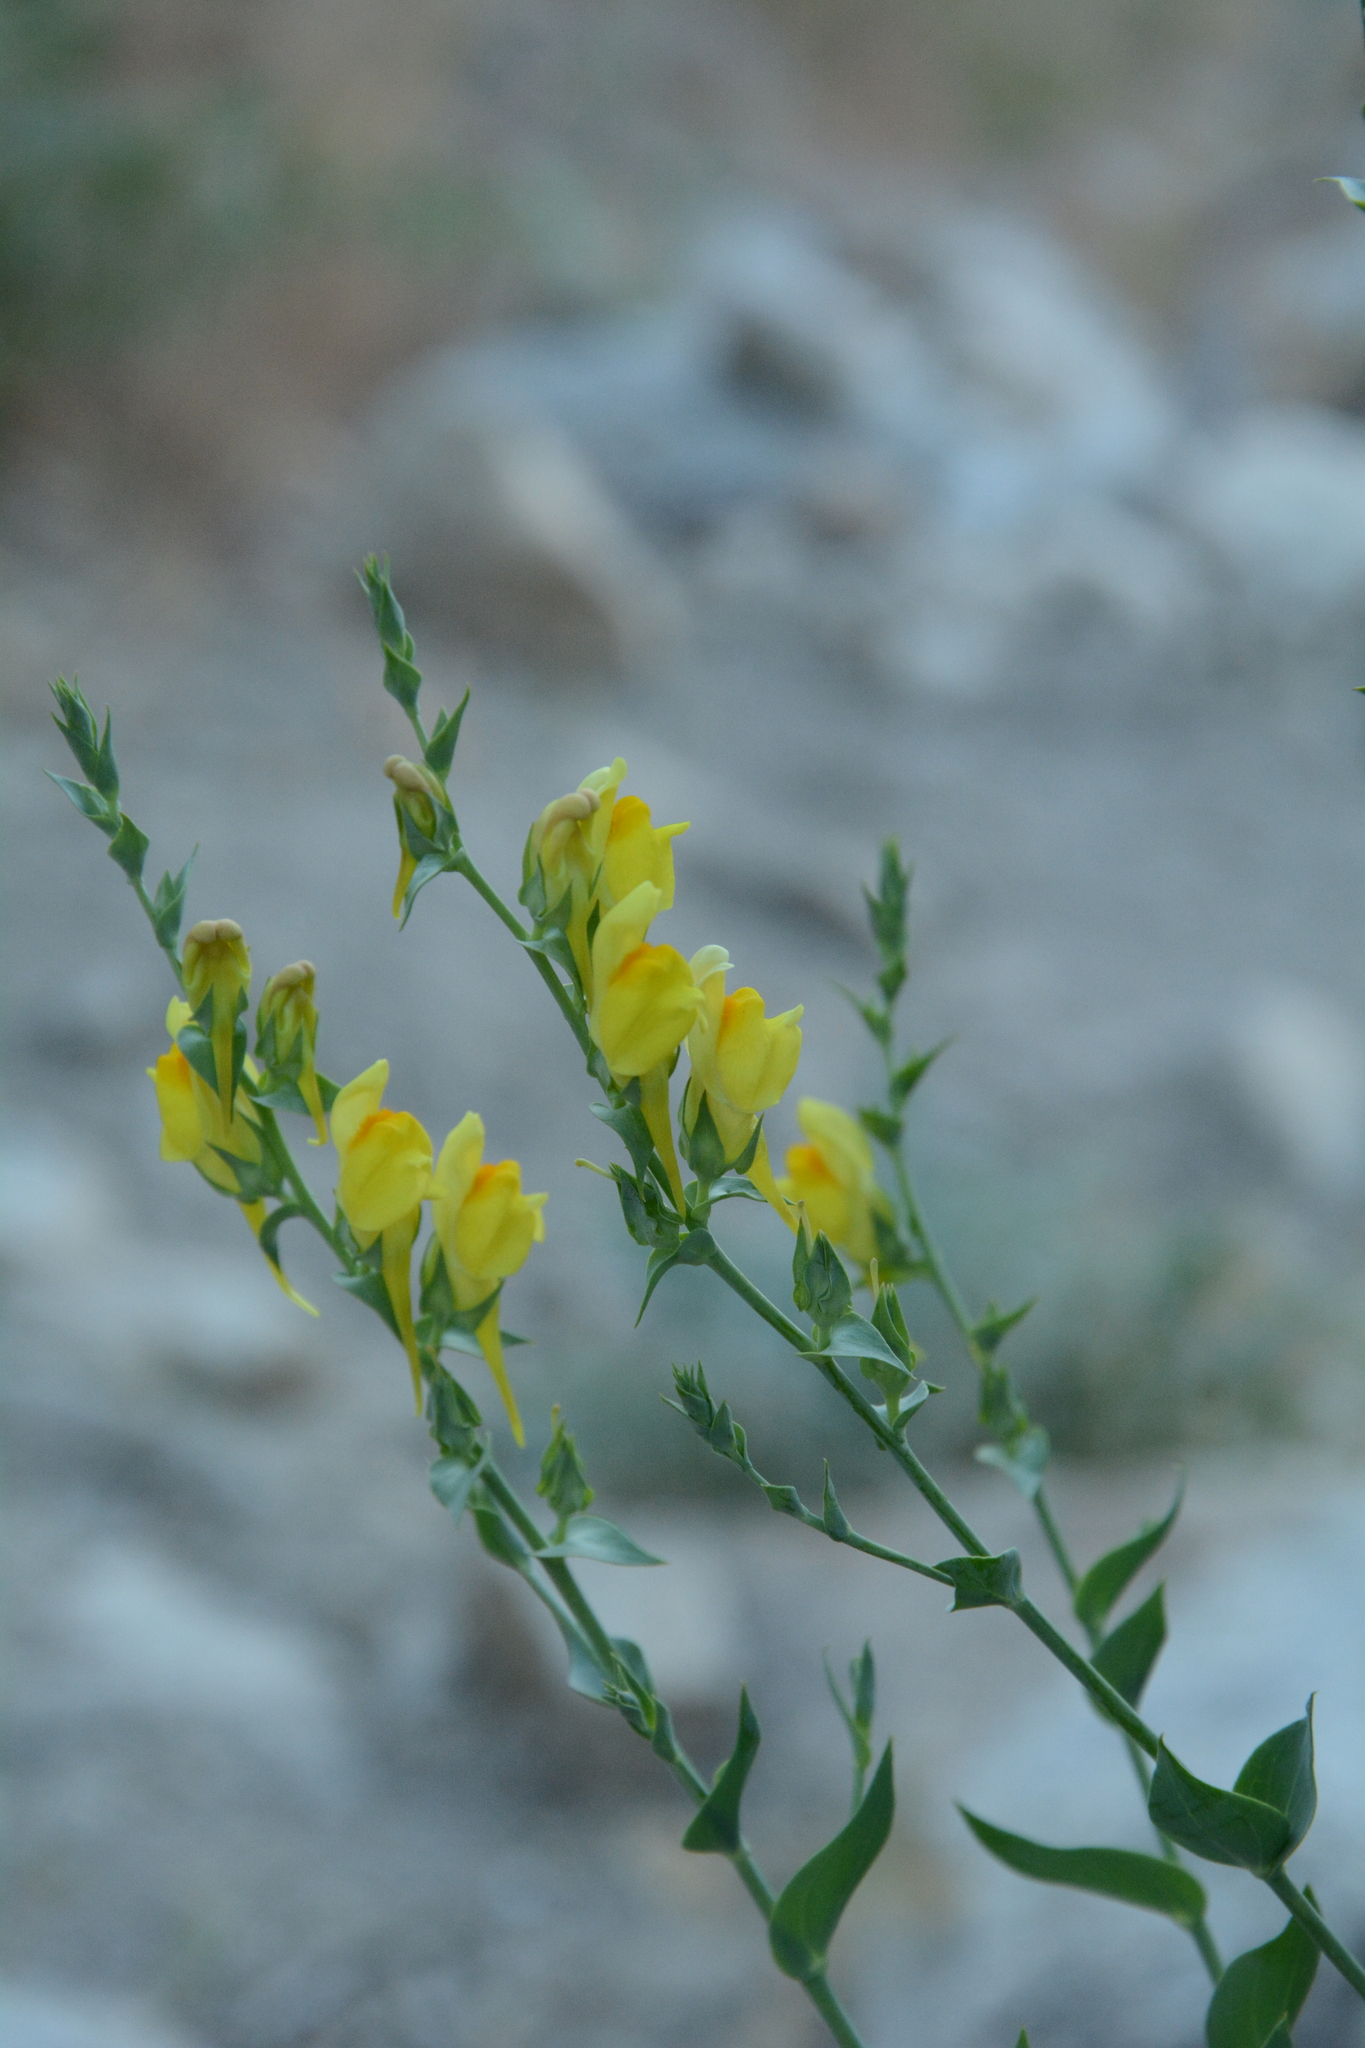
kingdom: Plantae
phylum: Tracheophyta
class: Magnoliopsida
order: Lamiales
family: Plantaginaceae
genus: Linaria
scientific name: Linaria dalmatica
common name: Dalmatian toadflax
